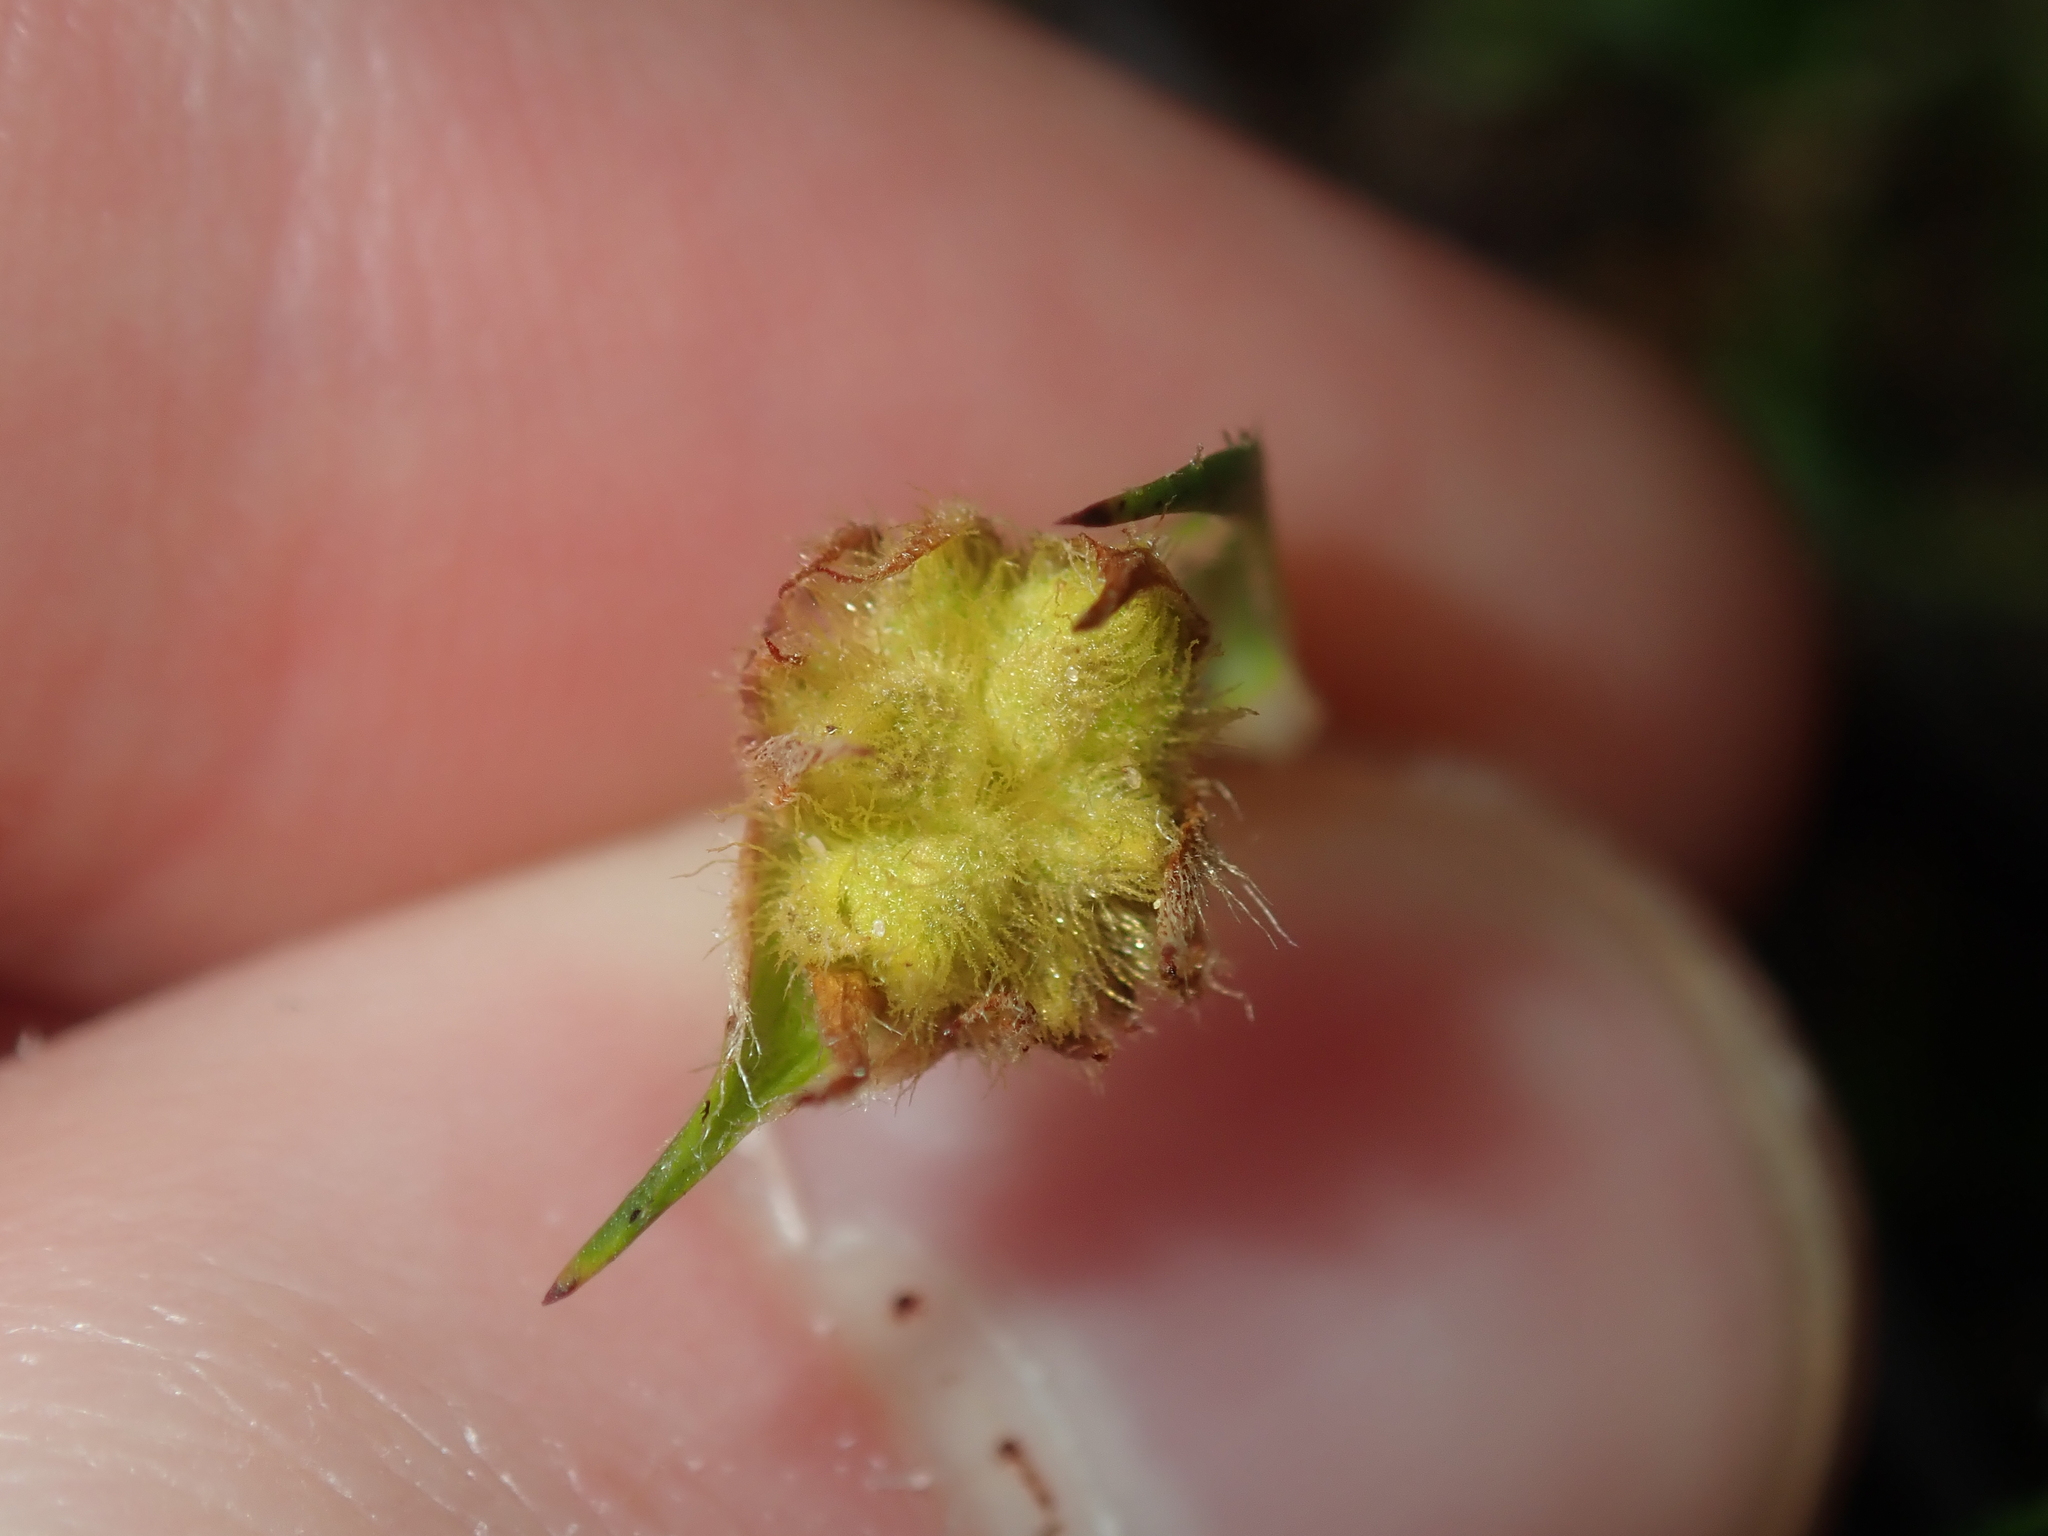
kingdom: Plantae
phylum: Tracheophyta
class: Liliopsida
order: Commelinales
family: Haemodoraceae
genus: Conostylis
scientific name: Conostylis prolifera
